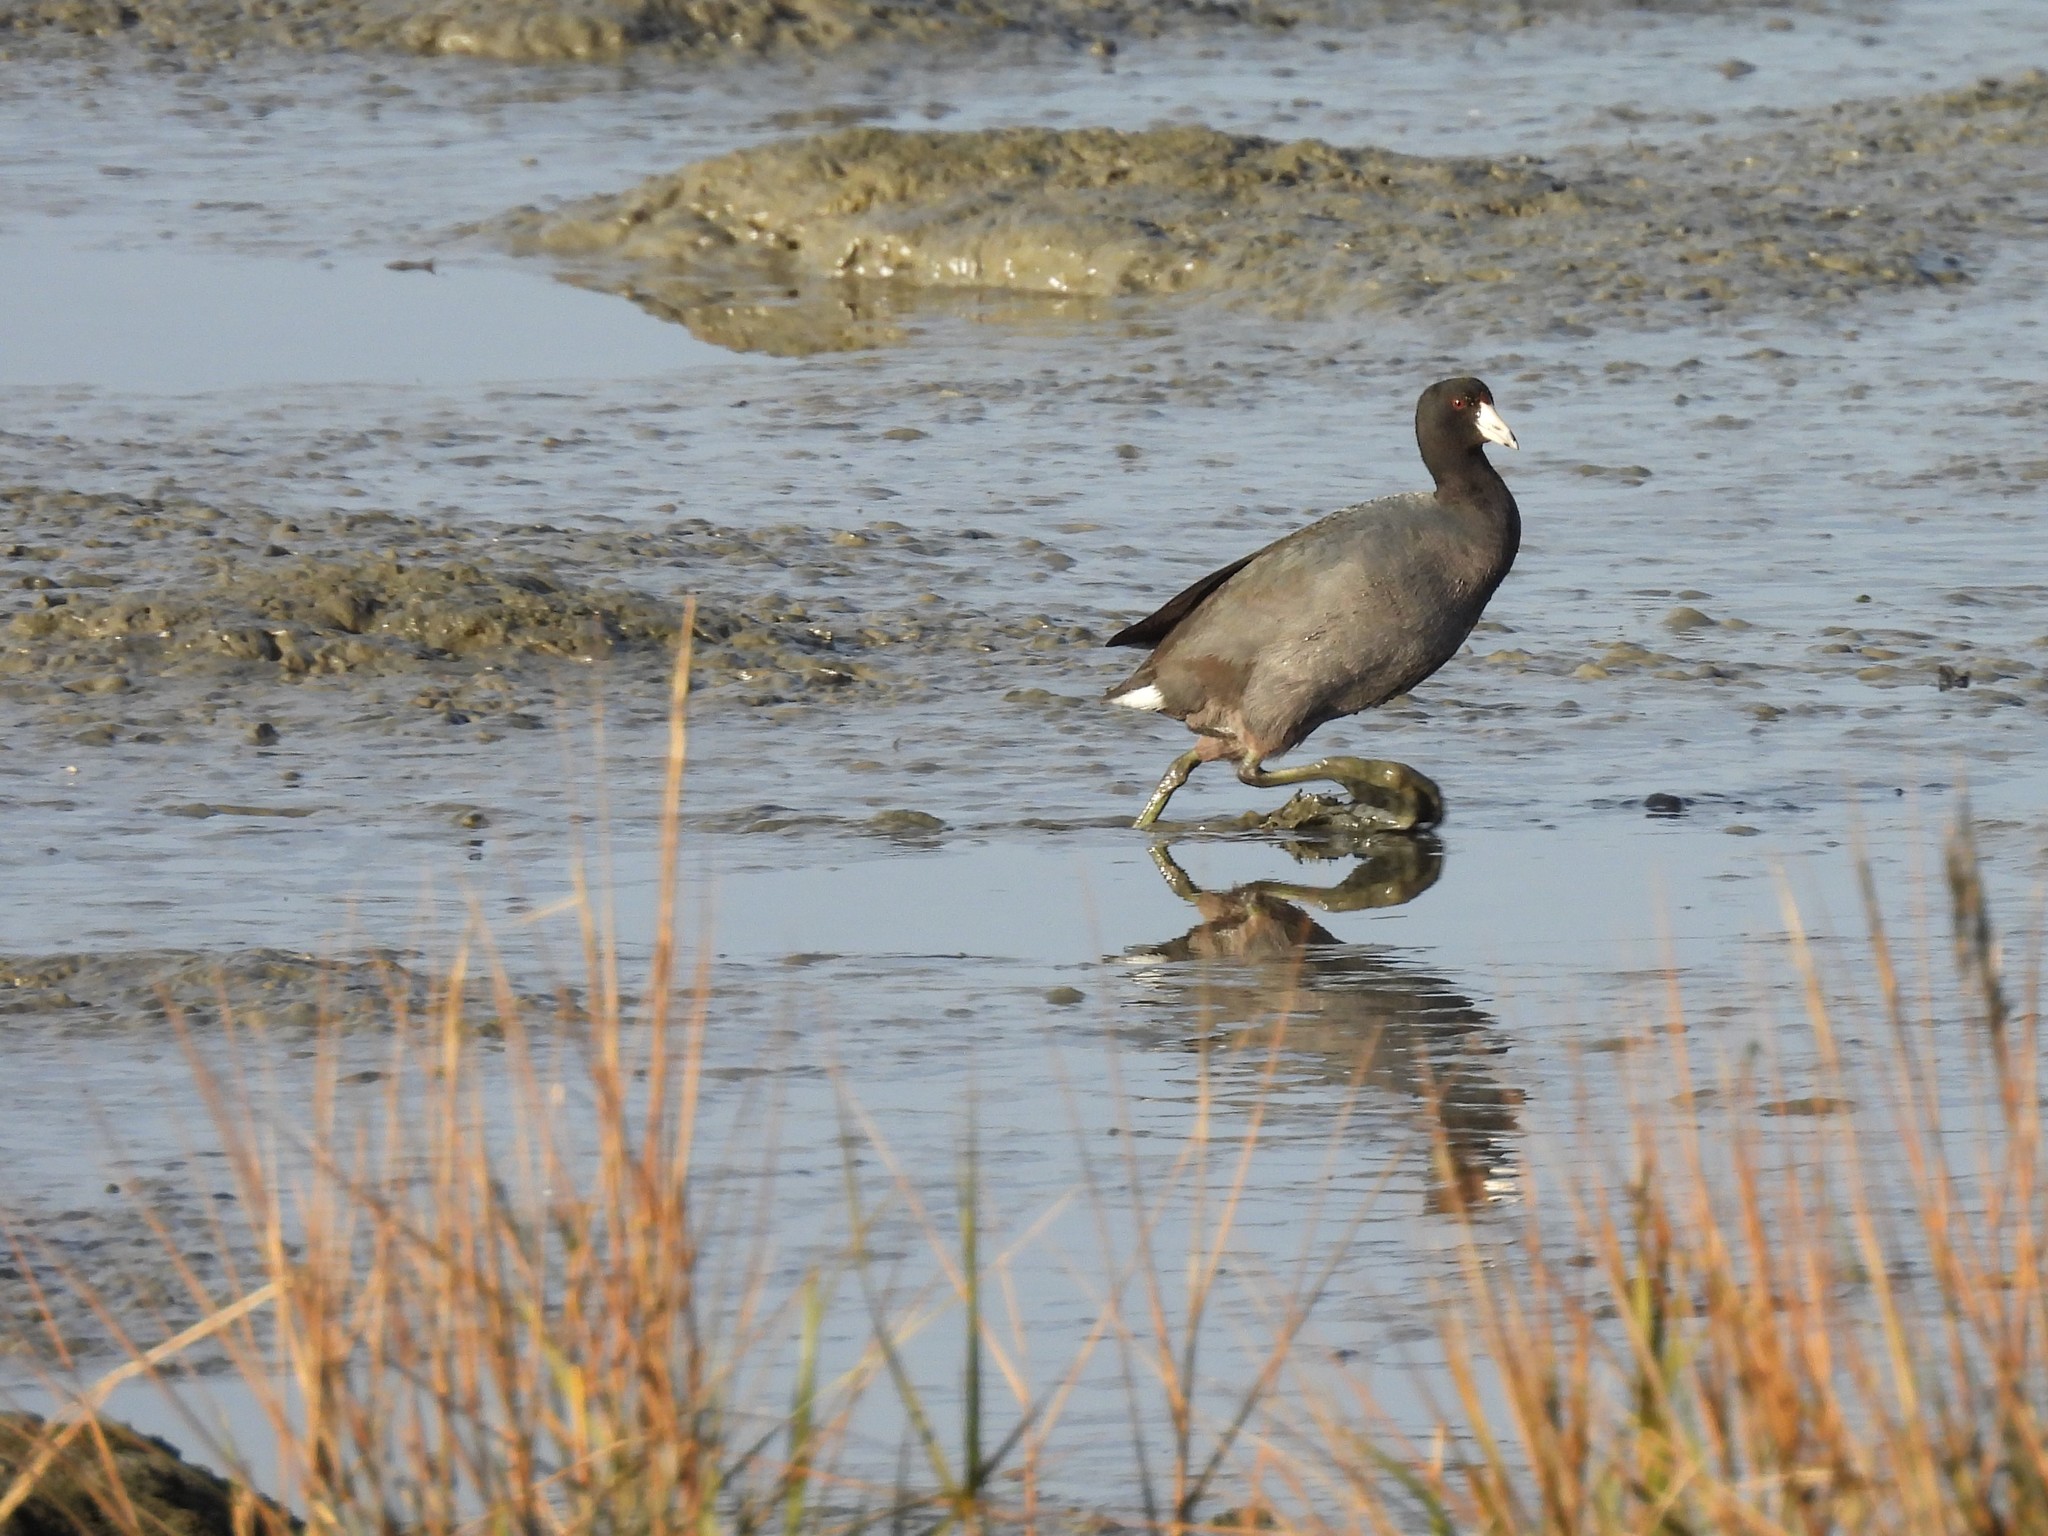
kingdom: Animalia
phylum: Chordata
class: Aves
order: Gruiformes
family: Rallidae
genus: Fulica
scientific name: Fulica americana
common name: American coot
